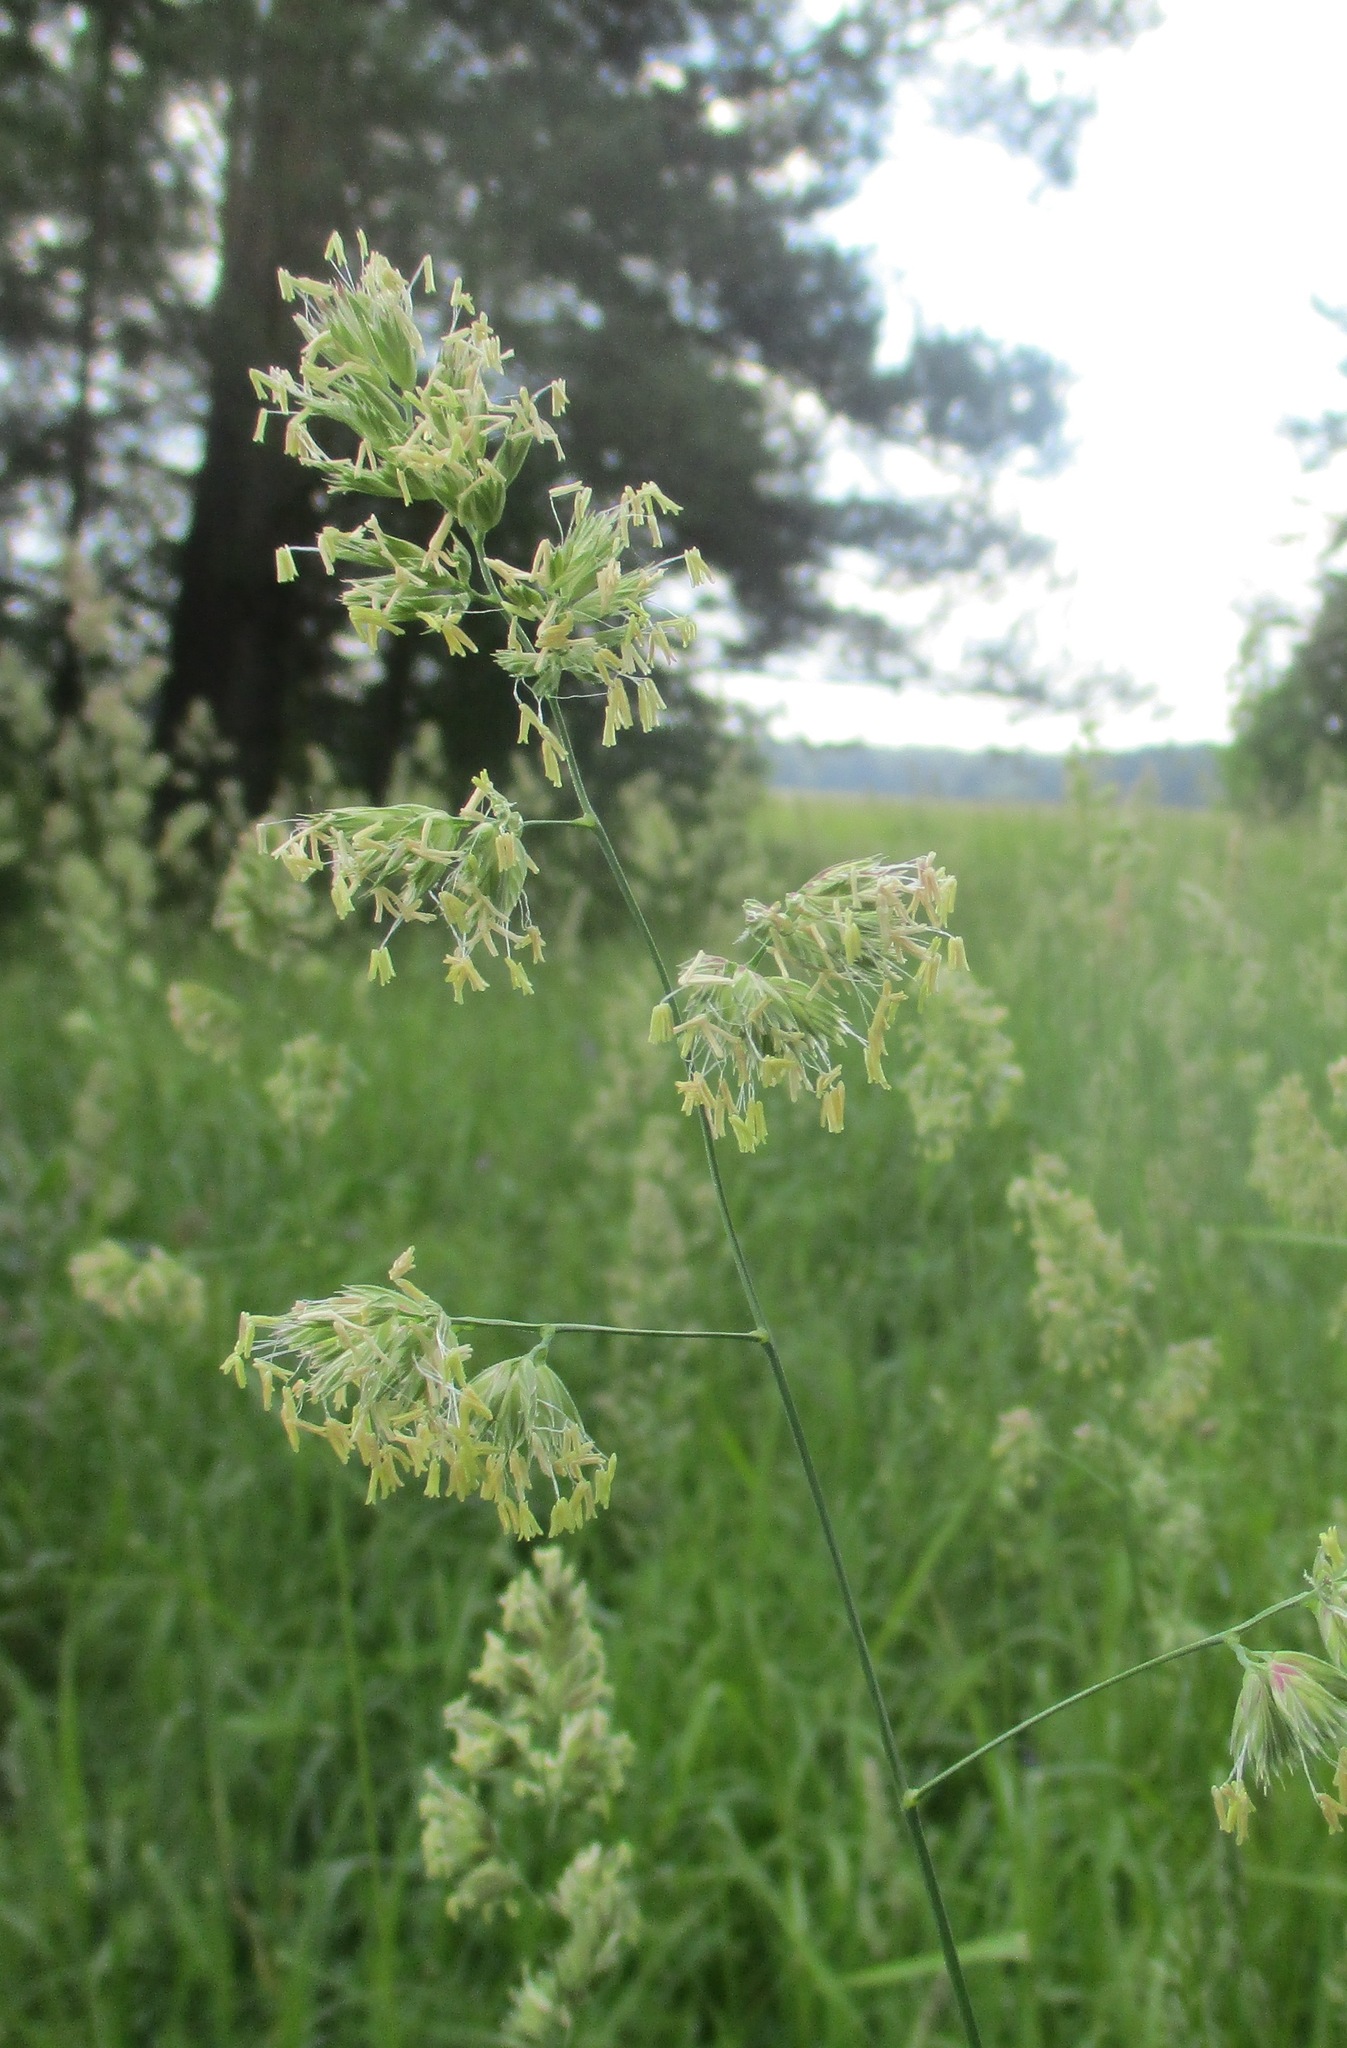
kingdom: Plantae
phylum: Tracheophyta
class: Liliopsida
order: Poales
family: Poaceae
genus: Dactylis
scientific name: Dactylis glomerata
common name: Orchardgrass
